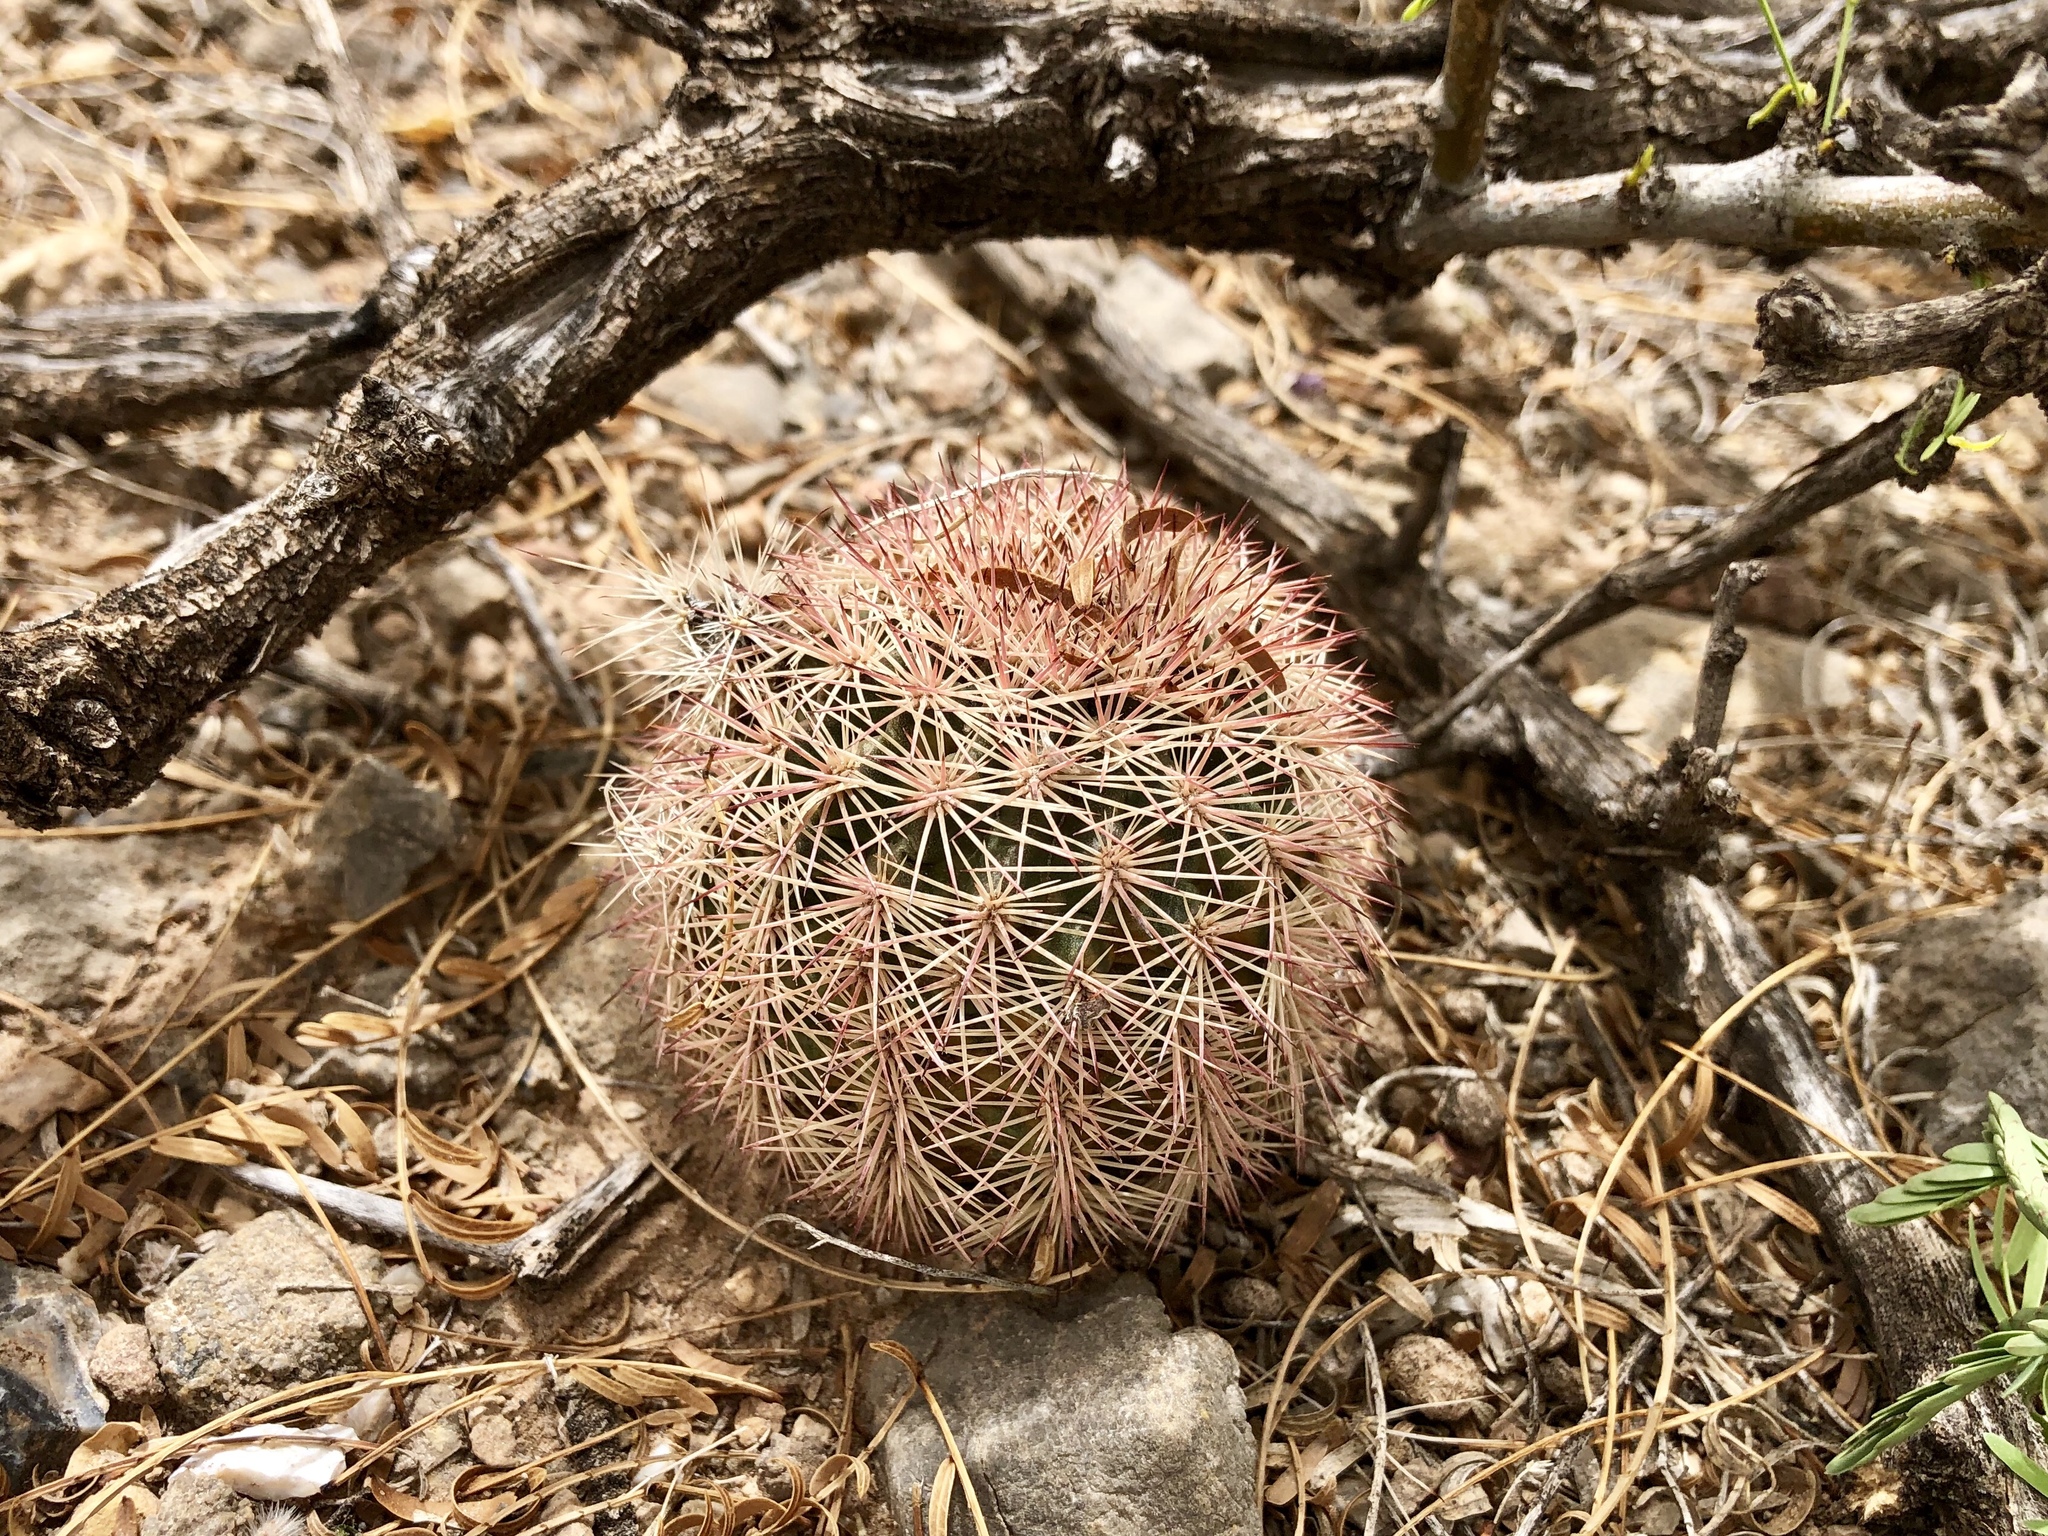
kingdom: Plantae
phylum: Tracheophyta
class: Magnoliopsida
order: Caryophyllales
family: Cactaceae
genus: Echinocereus
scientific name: Echinocereus dasyacanthus
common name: Spiny hedgehog cactus
